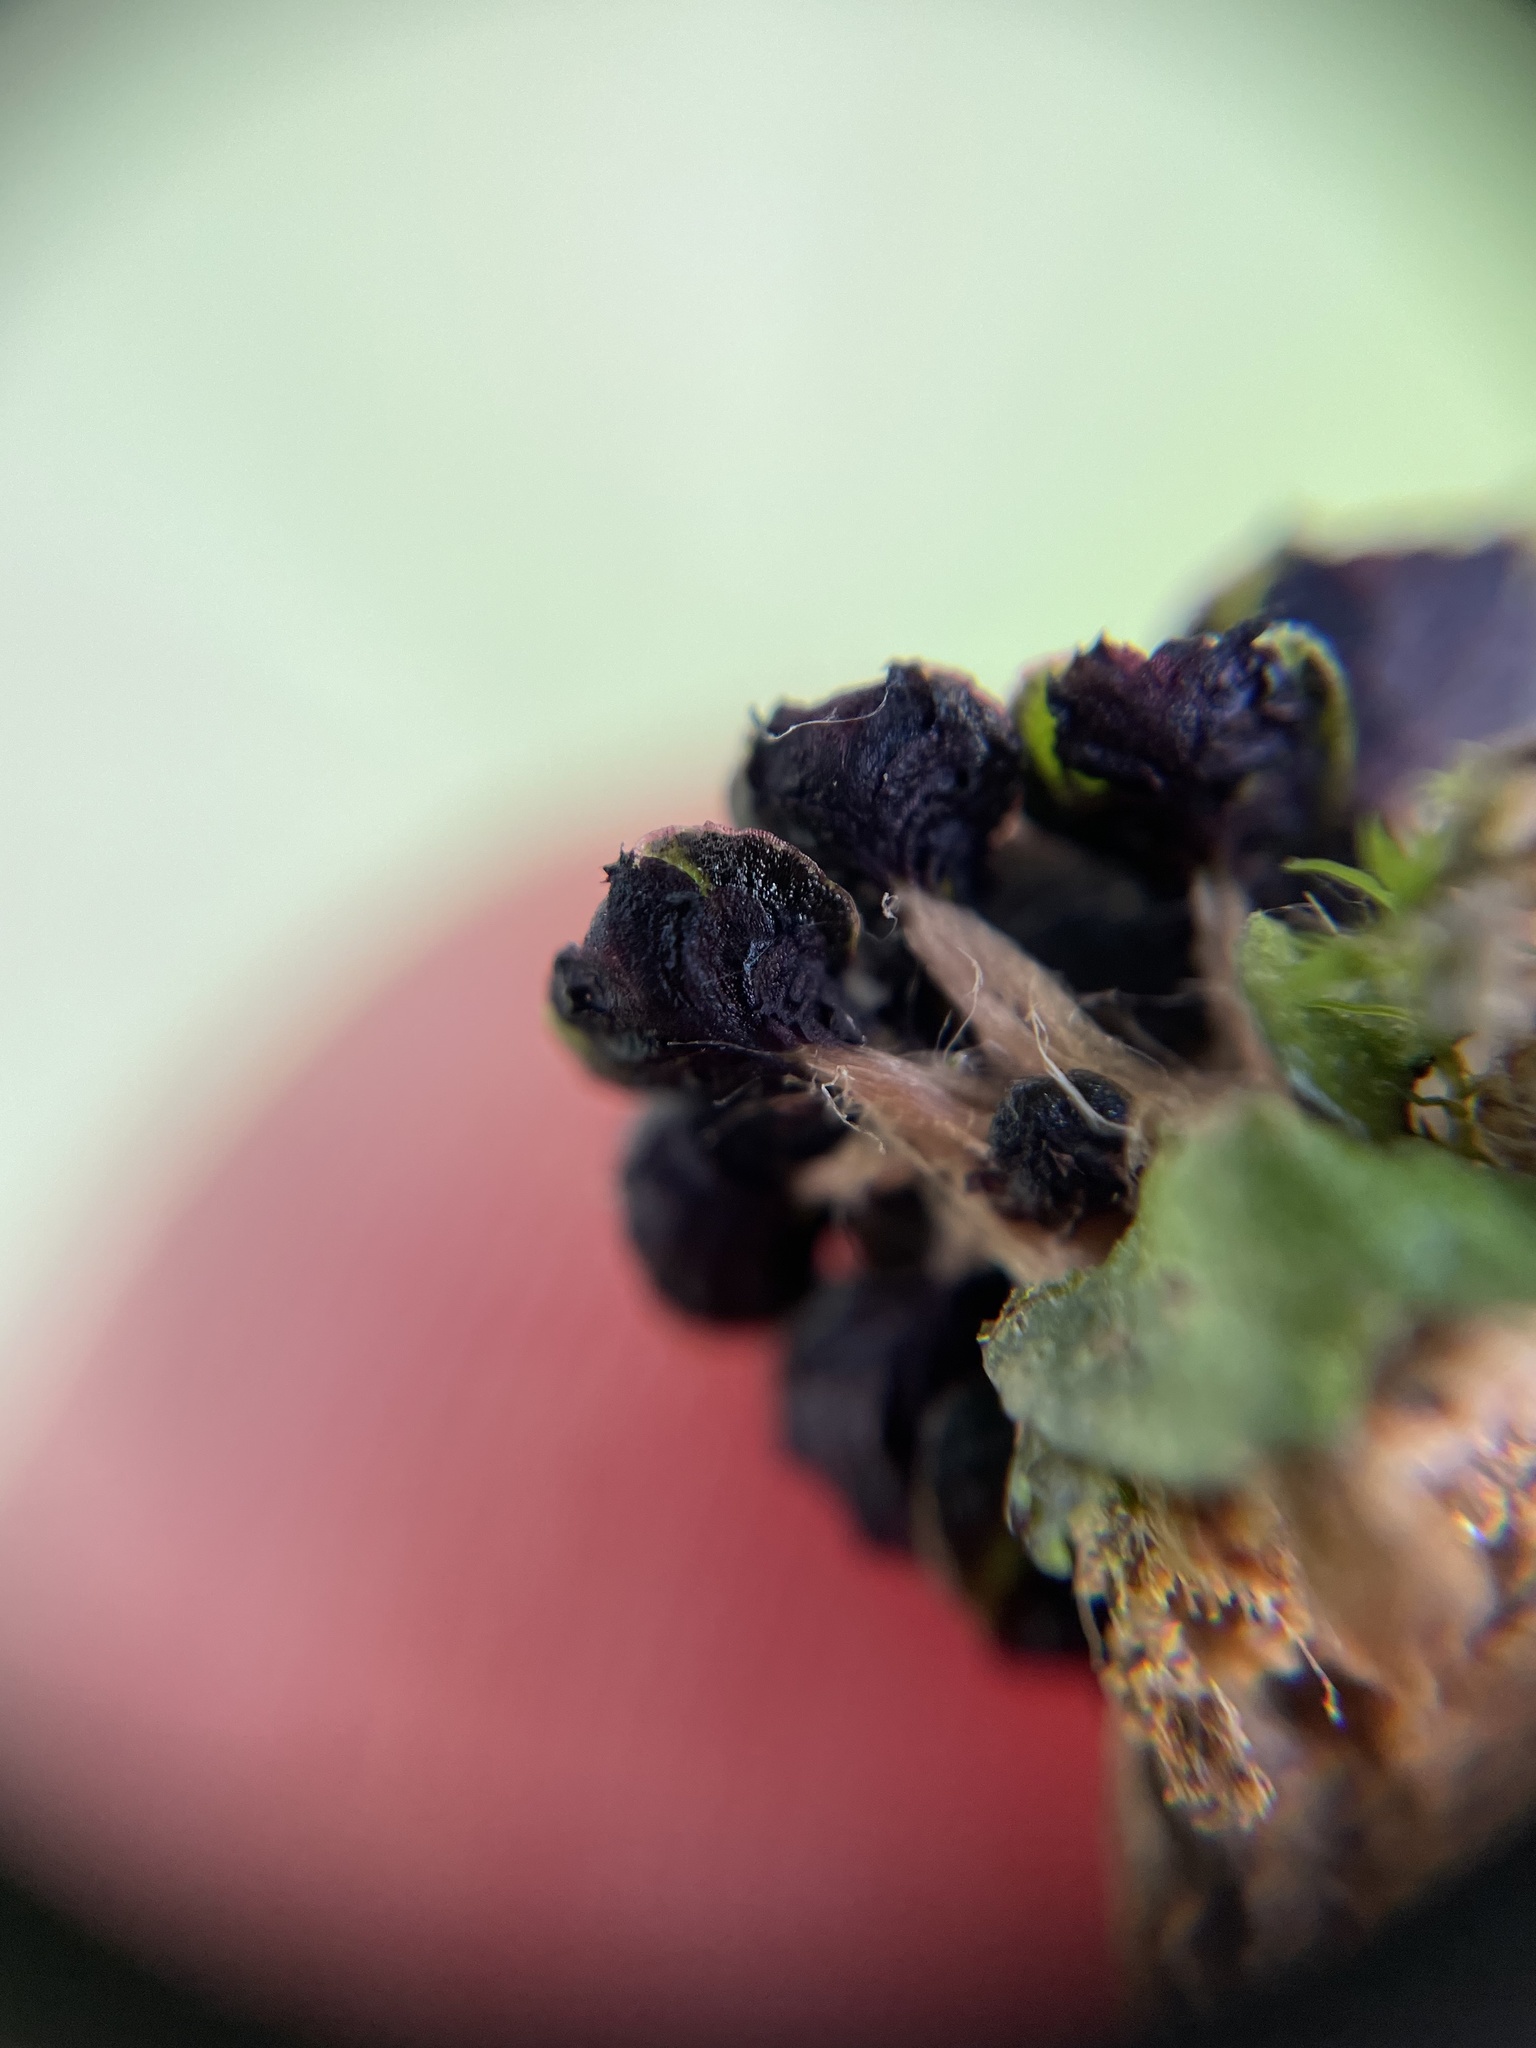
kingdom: Plantae
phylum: Marchantiophyta
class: Marchantiopsida
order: Marchantiales
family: Targioniaceae
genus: Targionia
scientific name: Targionia hypophylla
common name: Orobus-seed liverwort
